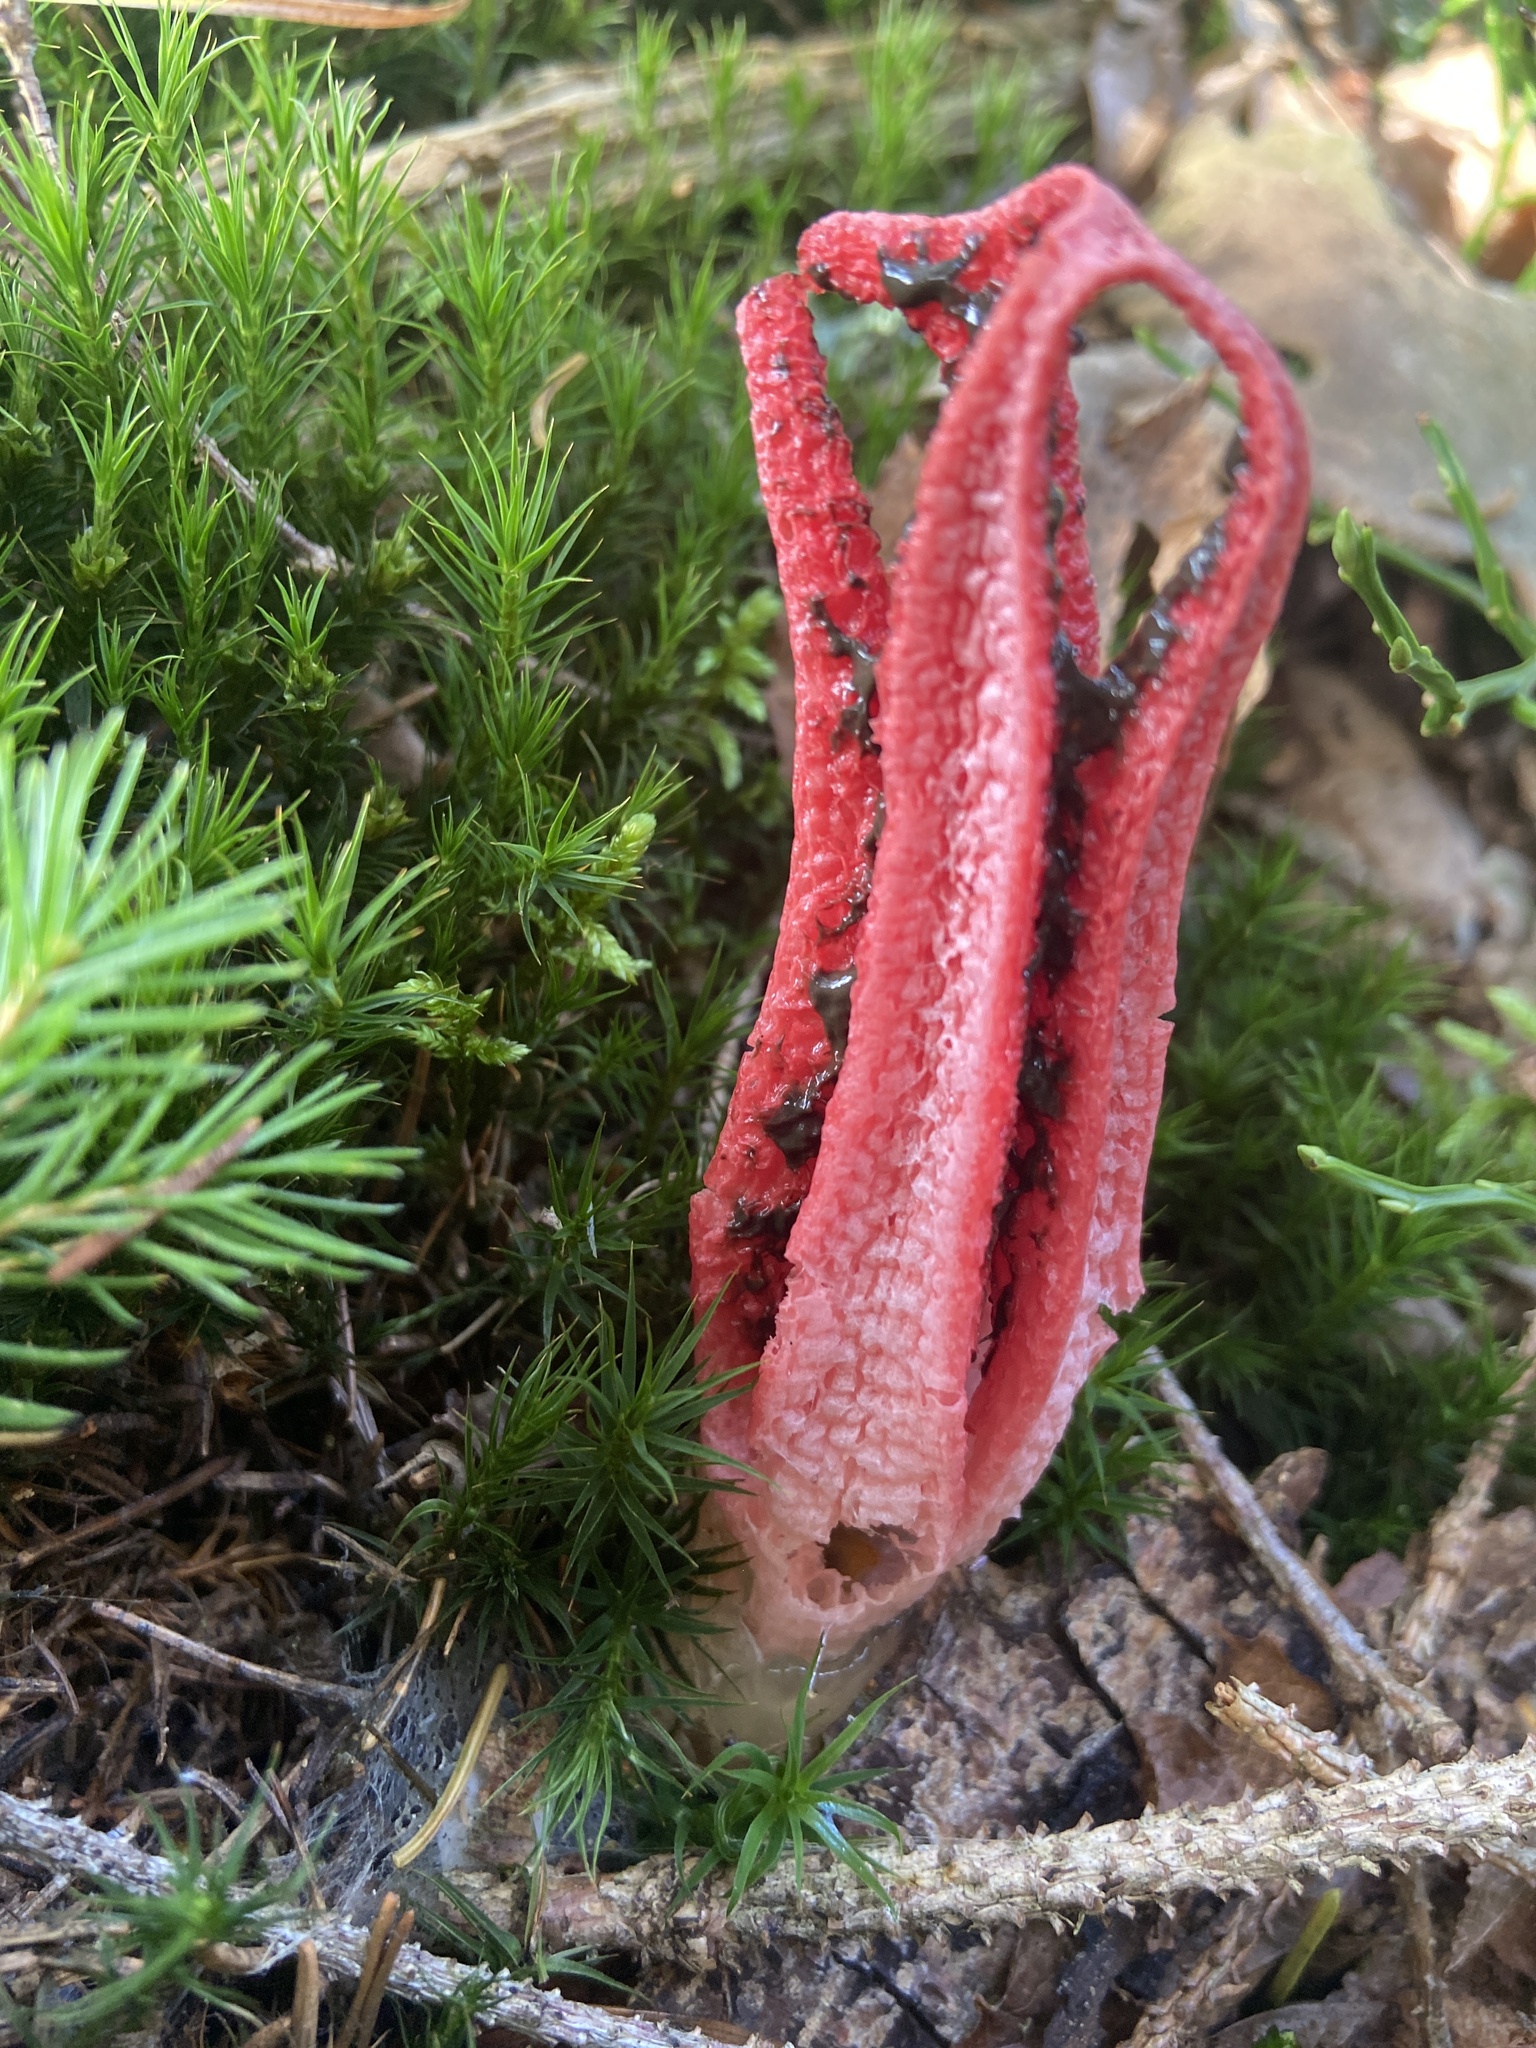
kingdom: Fungi
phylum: Basidiomycota
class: Agaricomycetes
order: Phallales
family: Phallaceae
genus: Clathrus
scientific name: Clathrus archeri
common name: Devil's fingers
